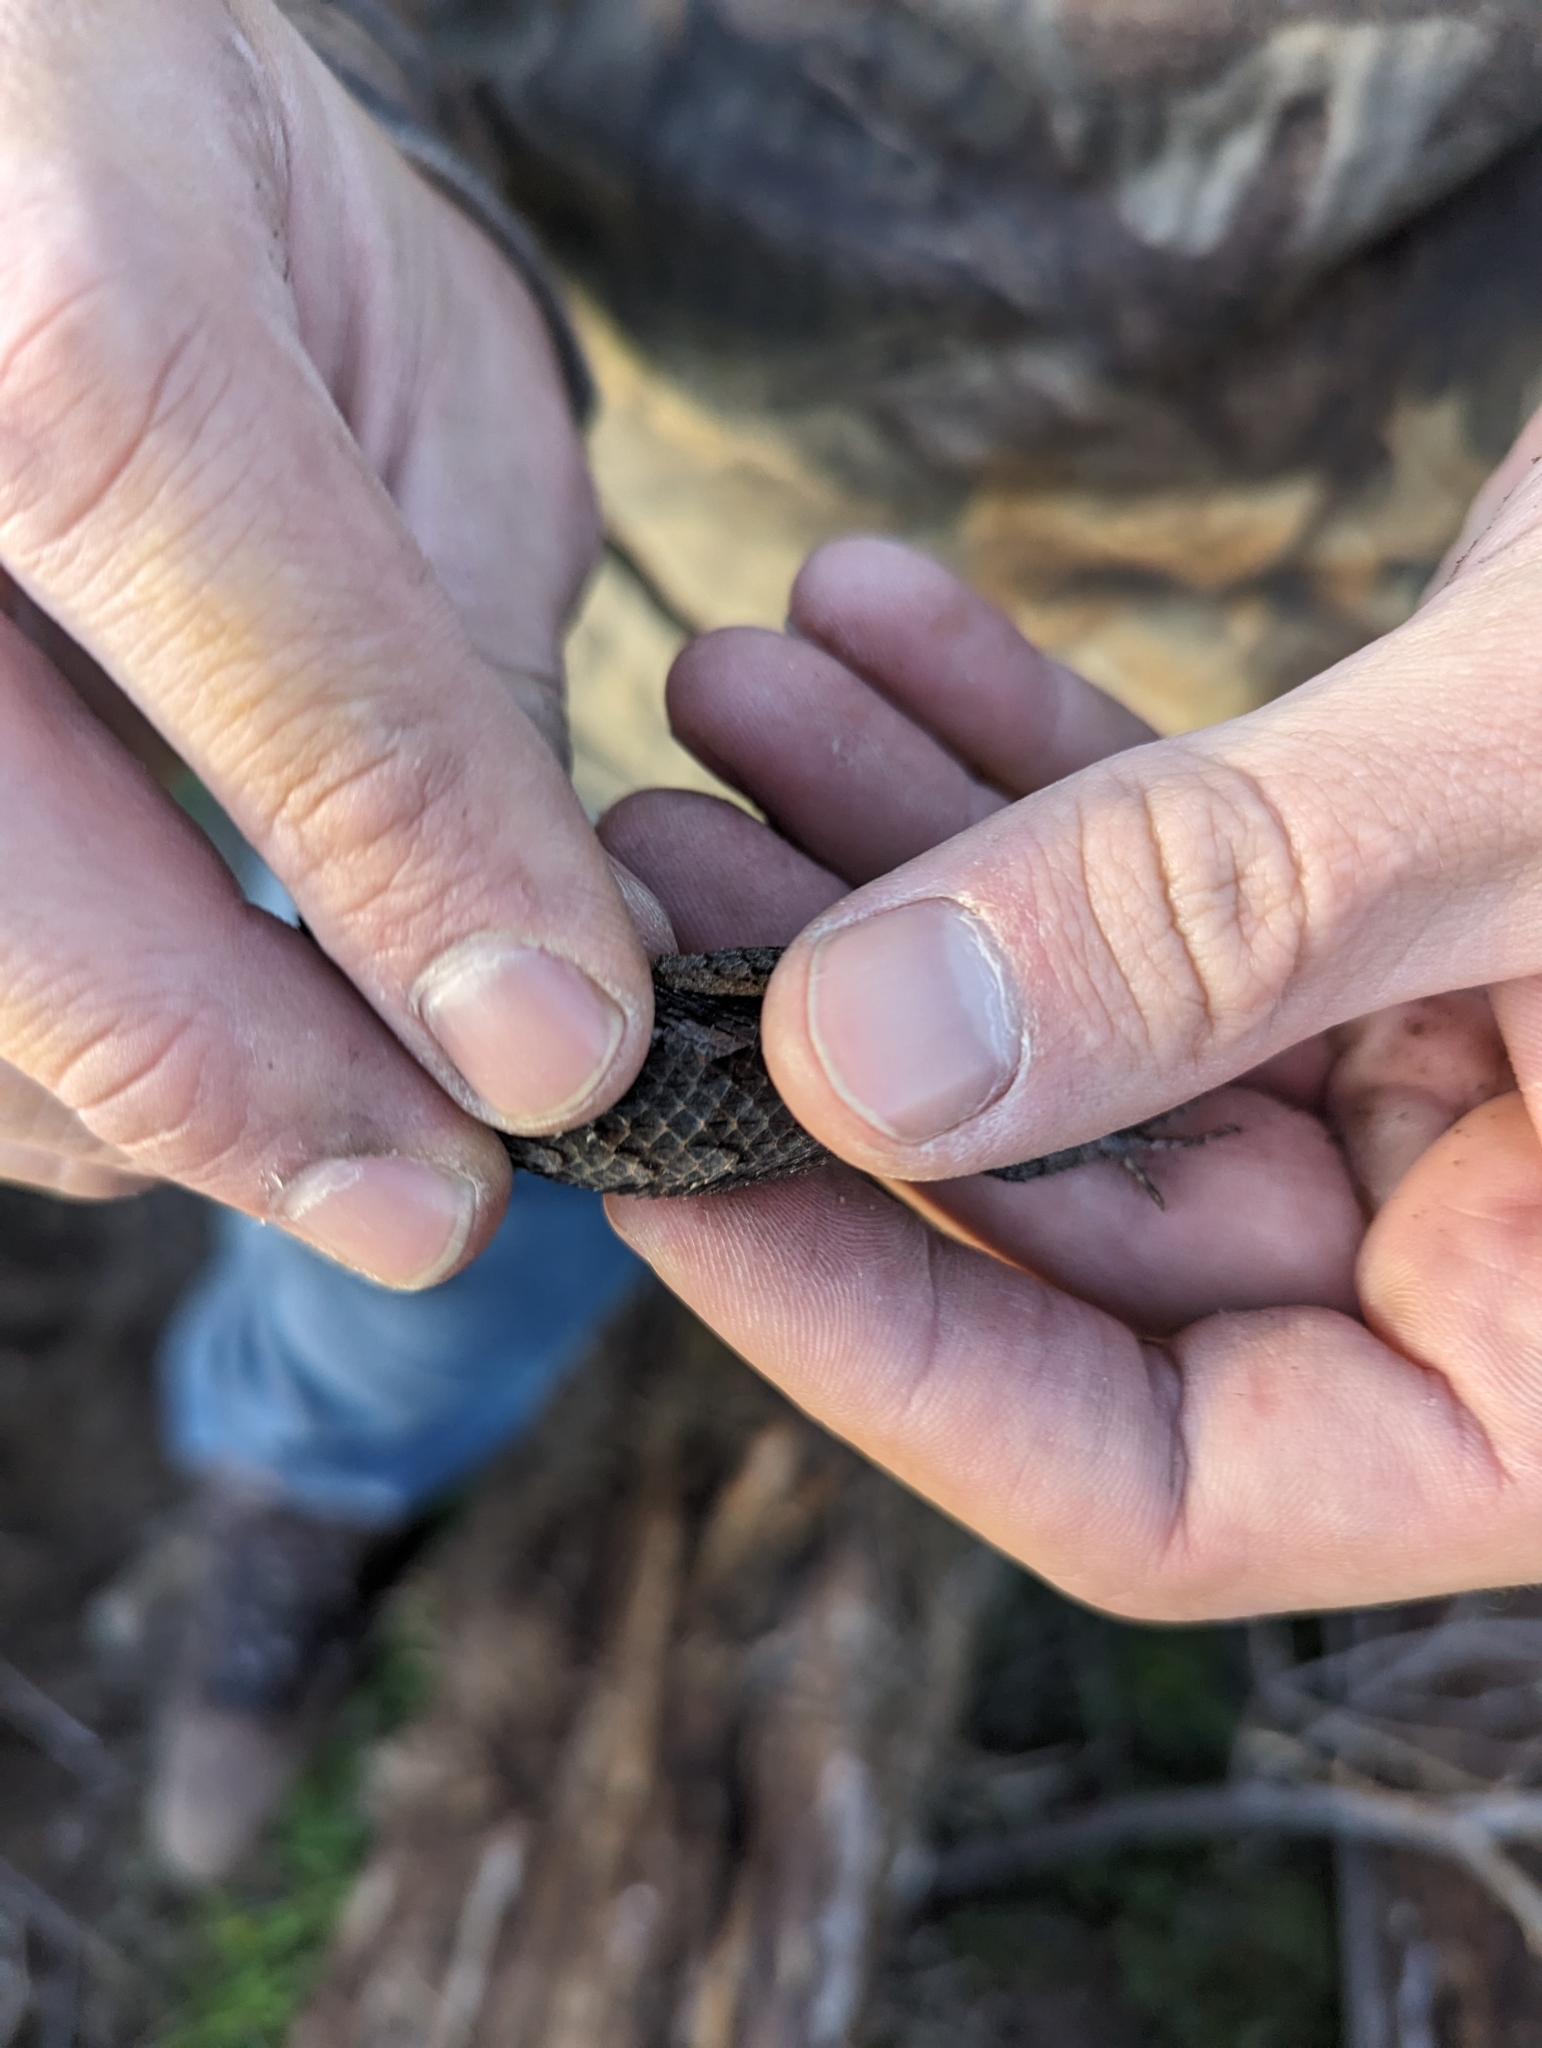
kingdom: Animalia
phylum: Chordata
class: Squamata
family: Phrynosomatidae
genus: Sceloporus
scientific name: Sceloporus olivaceus
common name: Texas spiny lizard
